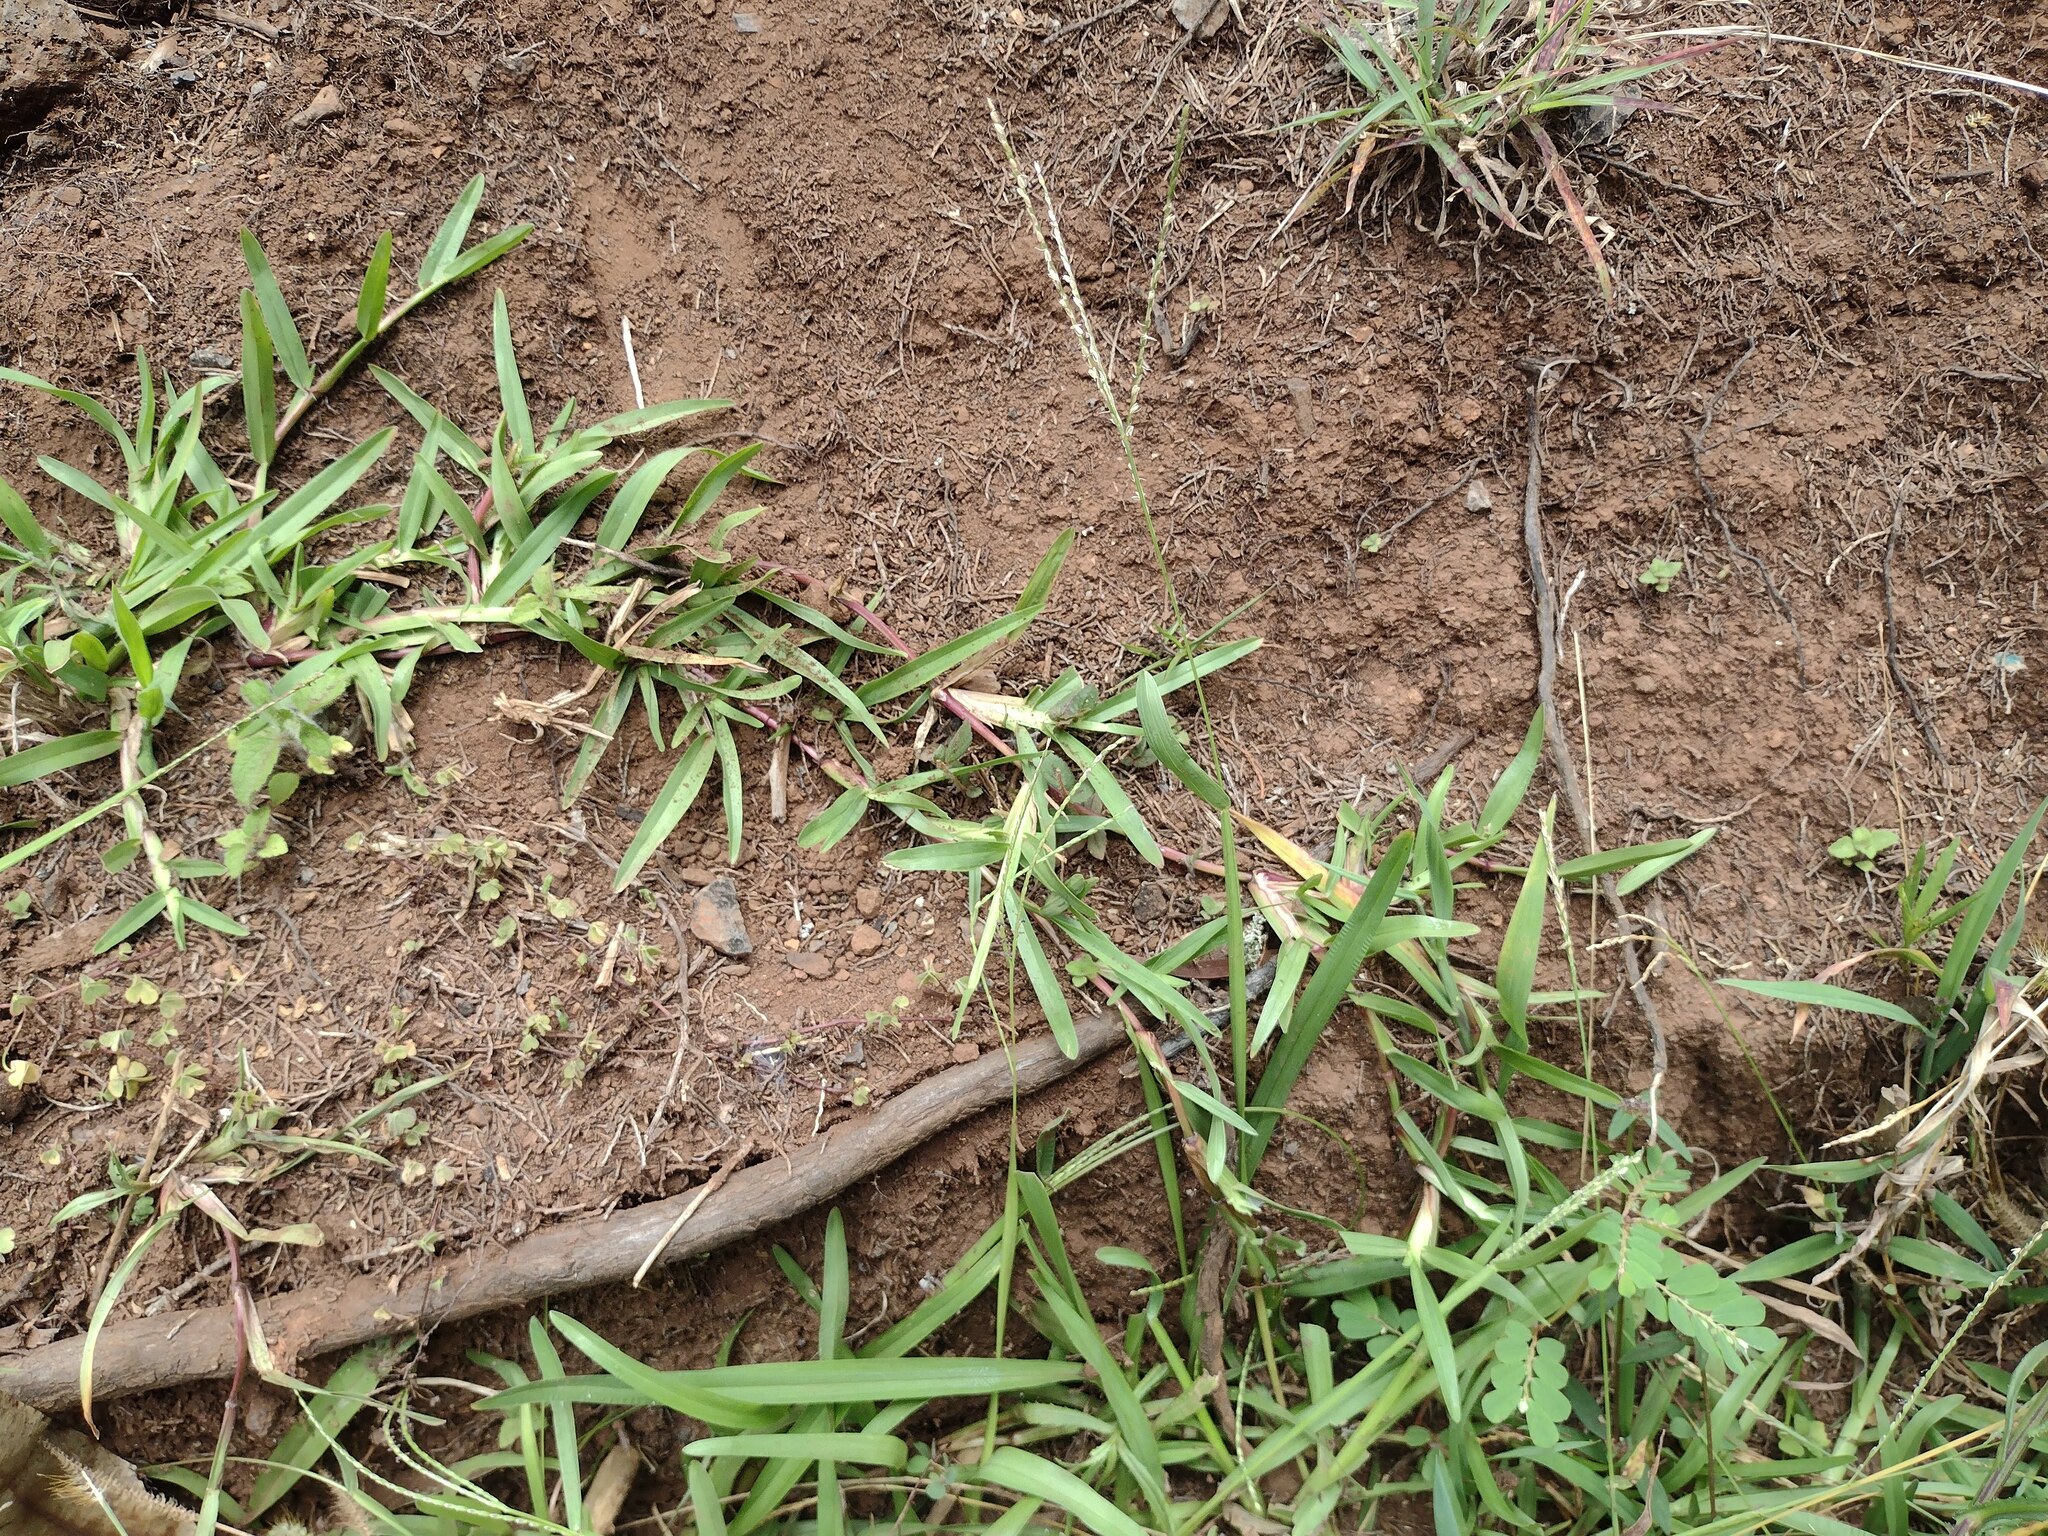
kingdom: Plantae
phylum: Tracheophyta
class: Liliopsida
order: Poales
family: Poaceae
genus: Axonopus
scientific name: Axonopus fissifolius
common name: Common carpetgrass
